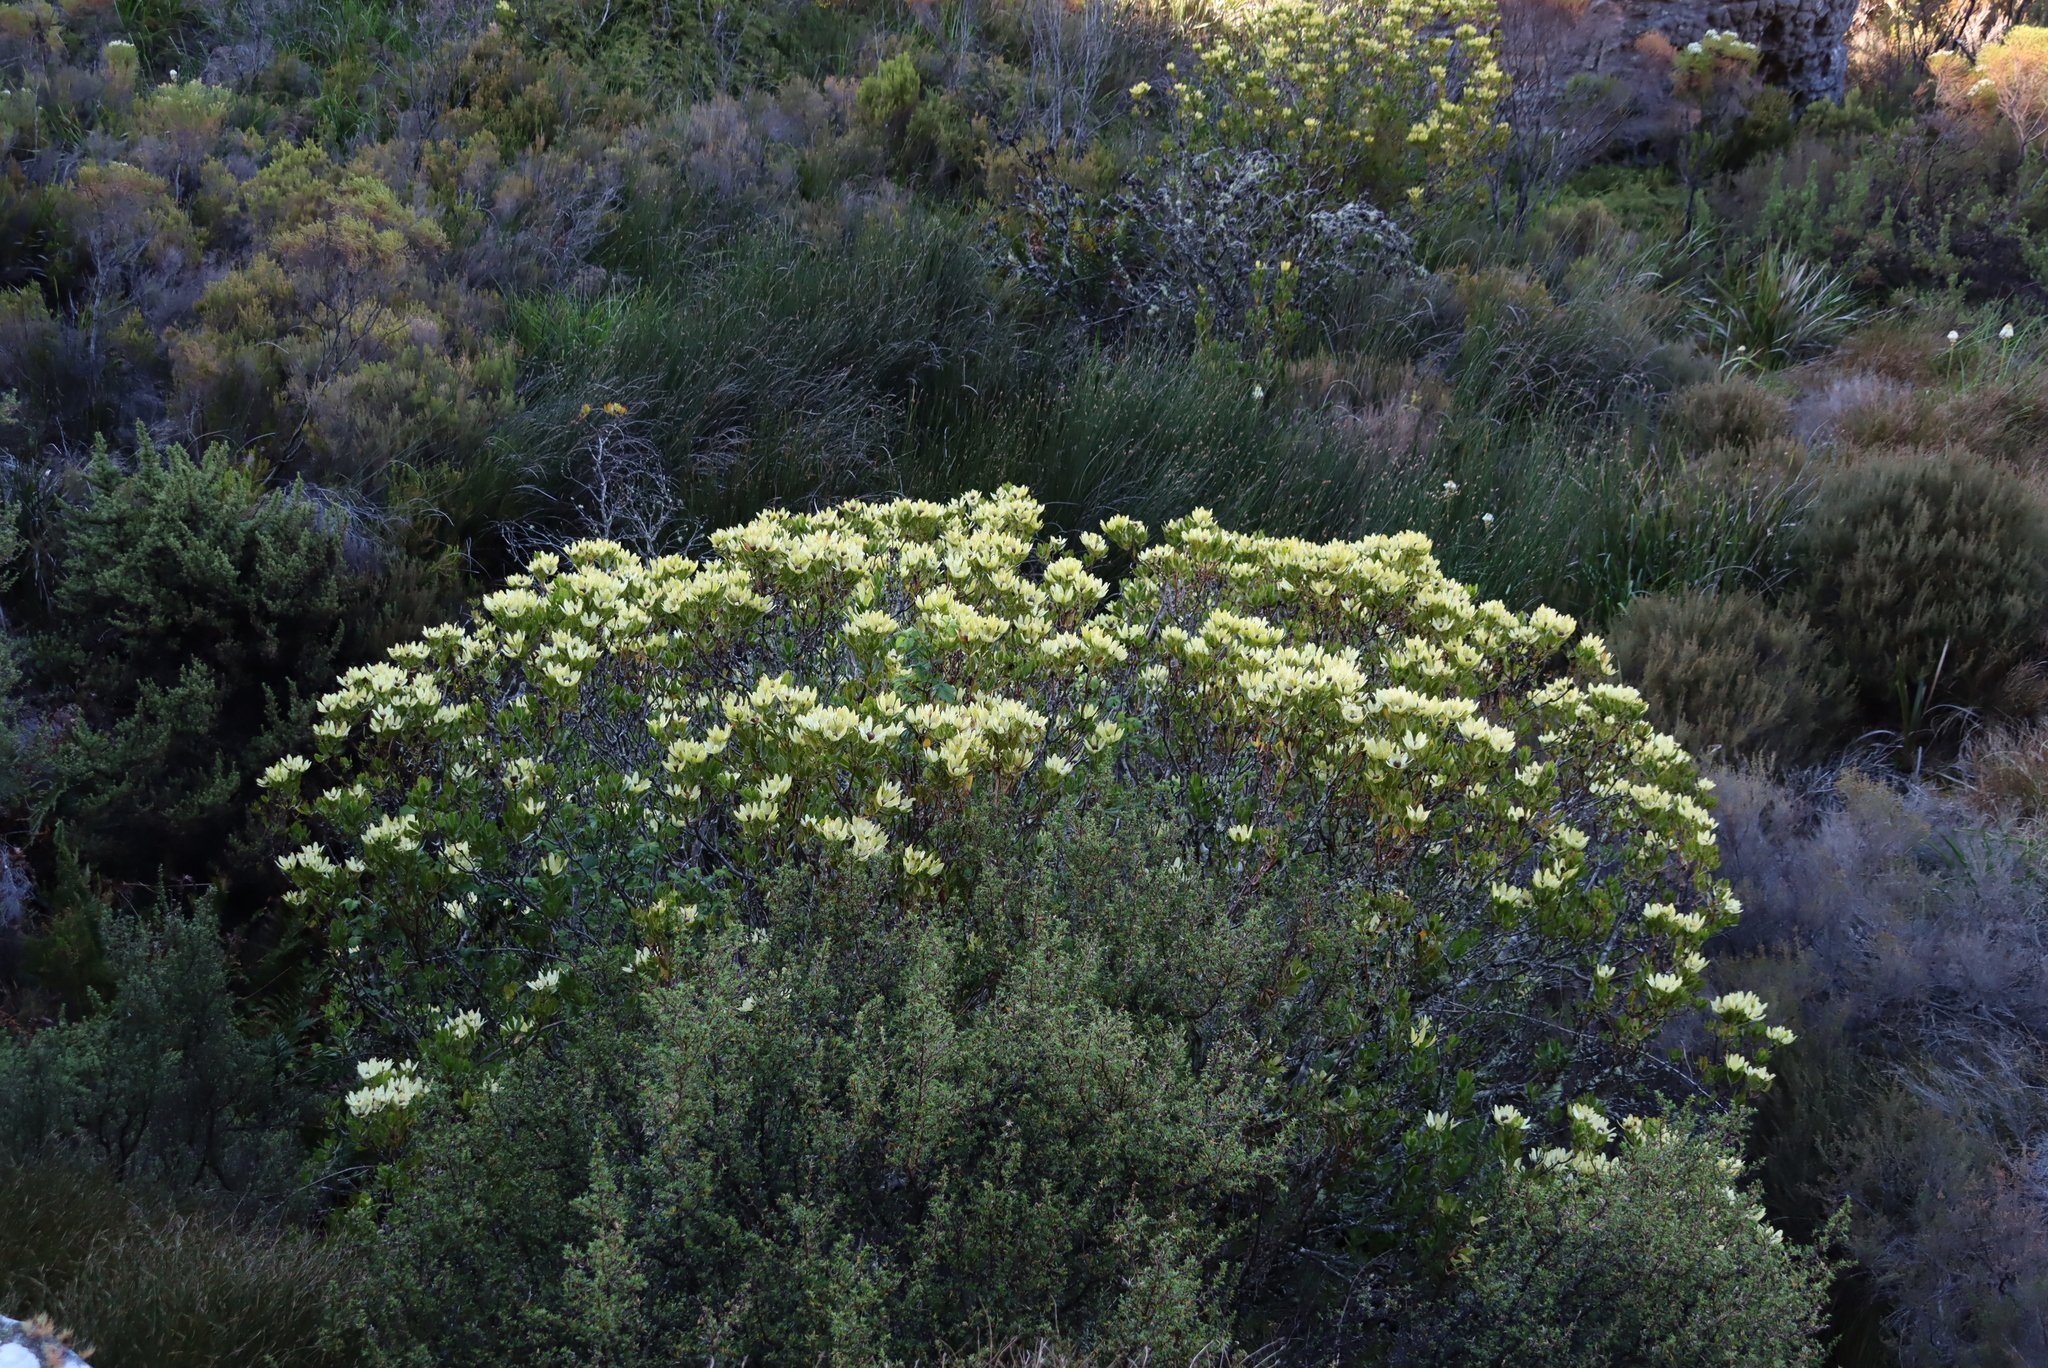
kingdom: Plantae
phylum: Tracheophyta
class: Magnoliopsida
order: Proteales
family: Proteaceae
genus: Leucadendron
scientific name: Leucadendron strobilinum
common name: Mountain rose
